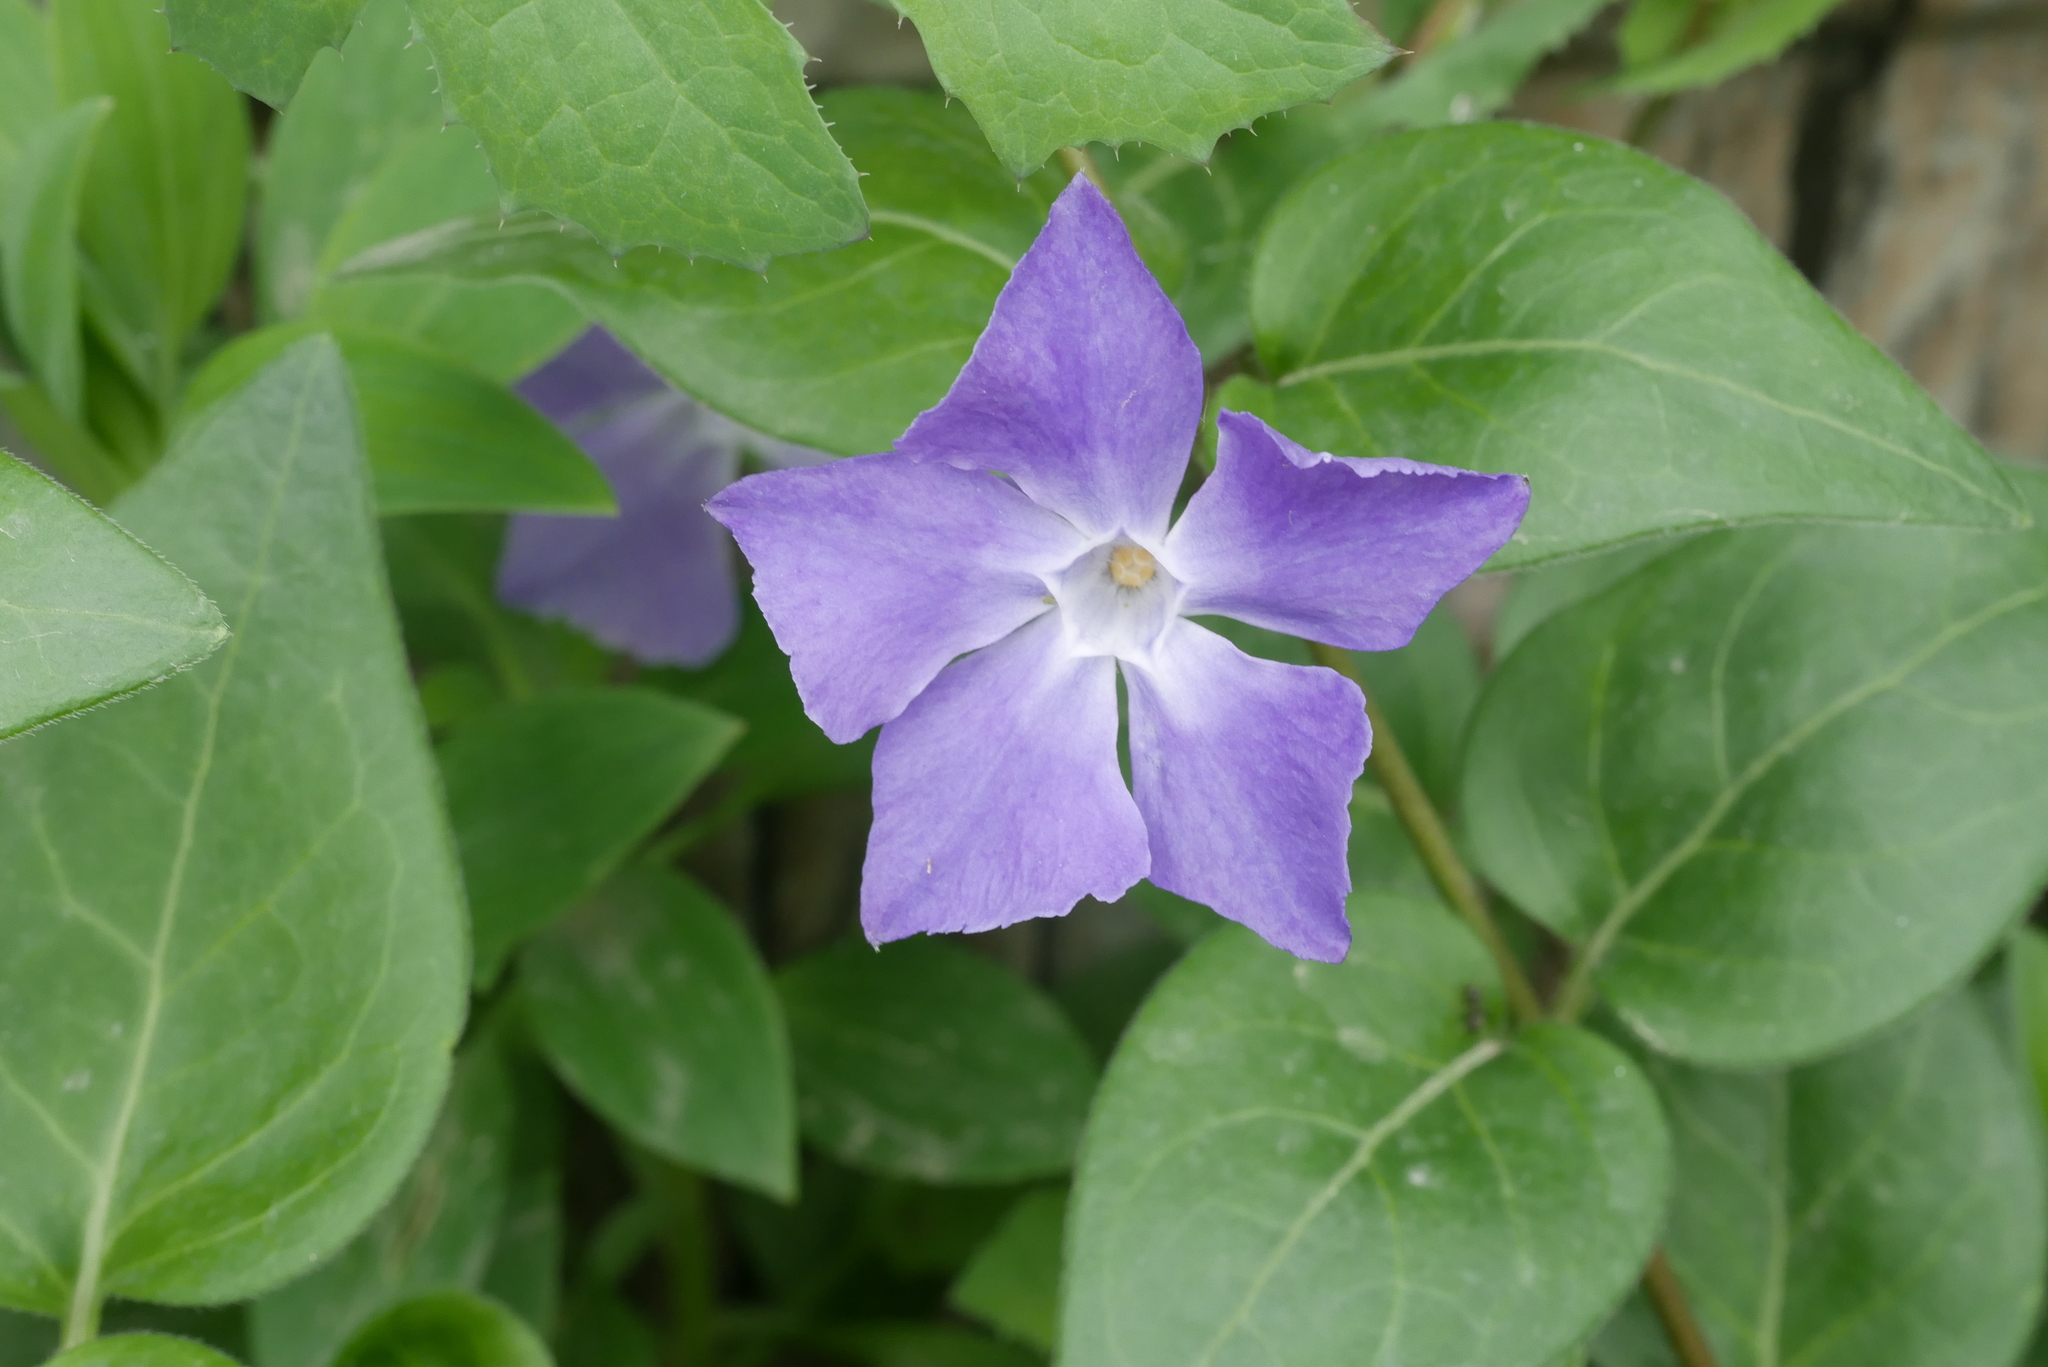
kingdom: Plantae
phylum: Tracheophyta
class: Magnoliopsida
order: Gentianales
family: Apocynaceae
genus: Vinca
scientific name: Vinca major
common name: Greater periwinkle
